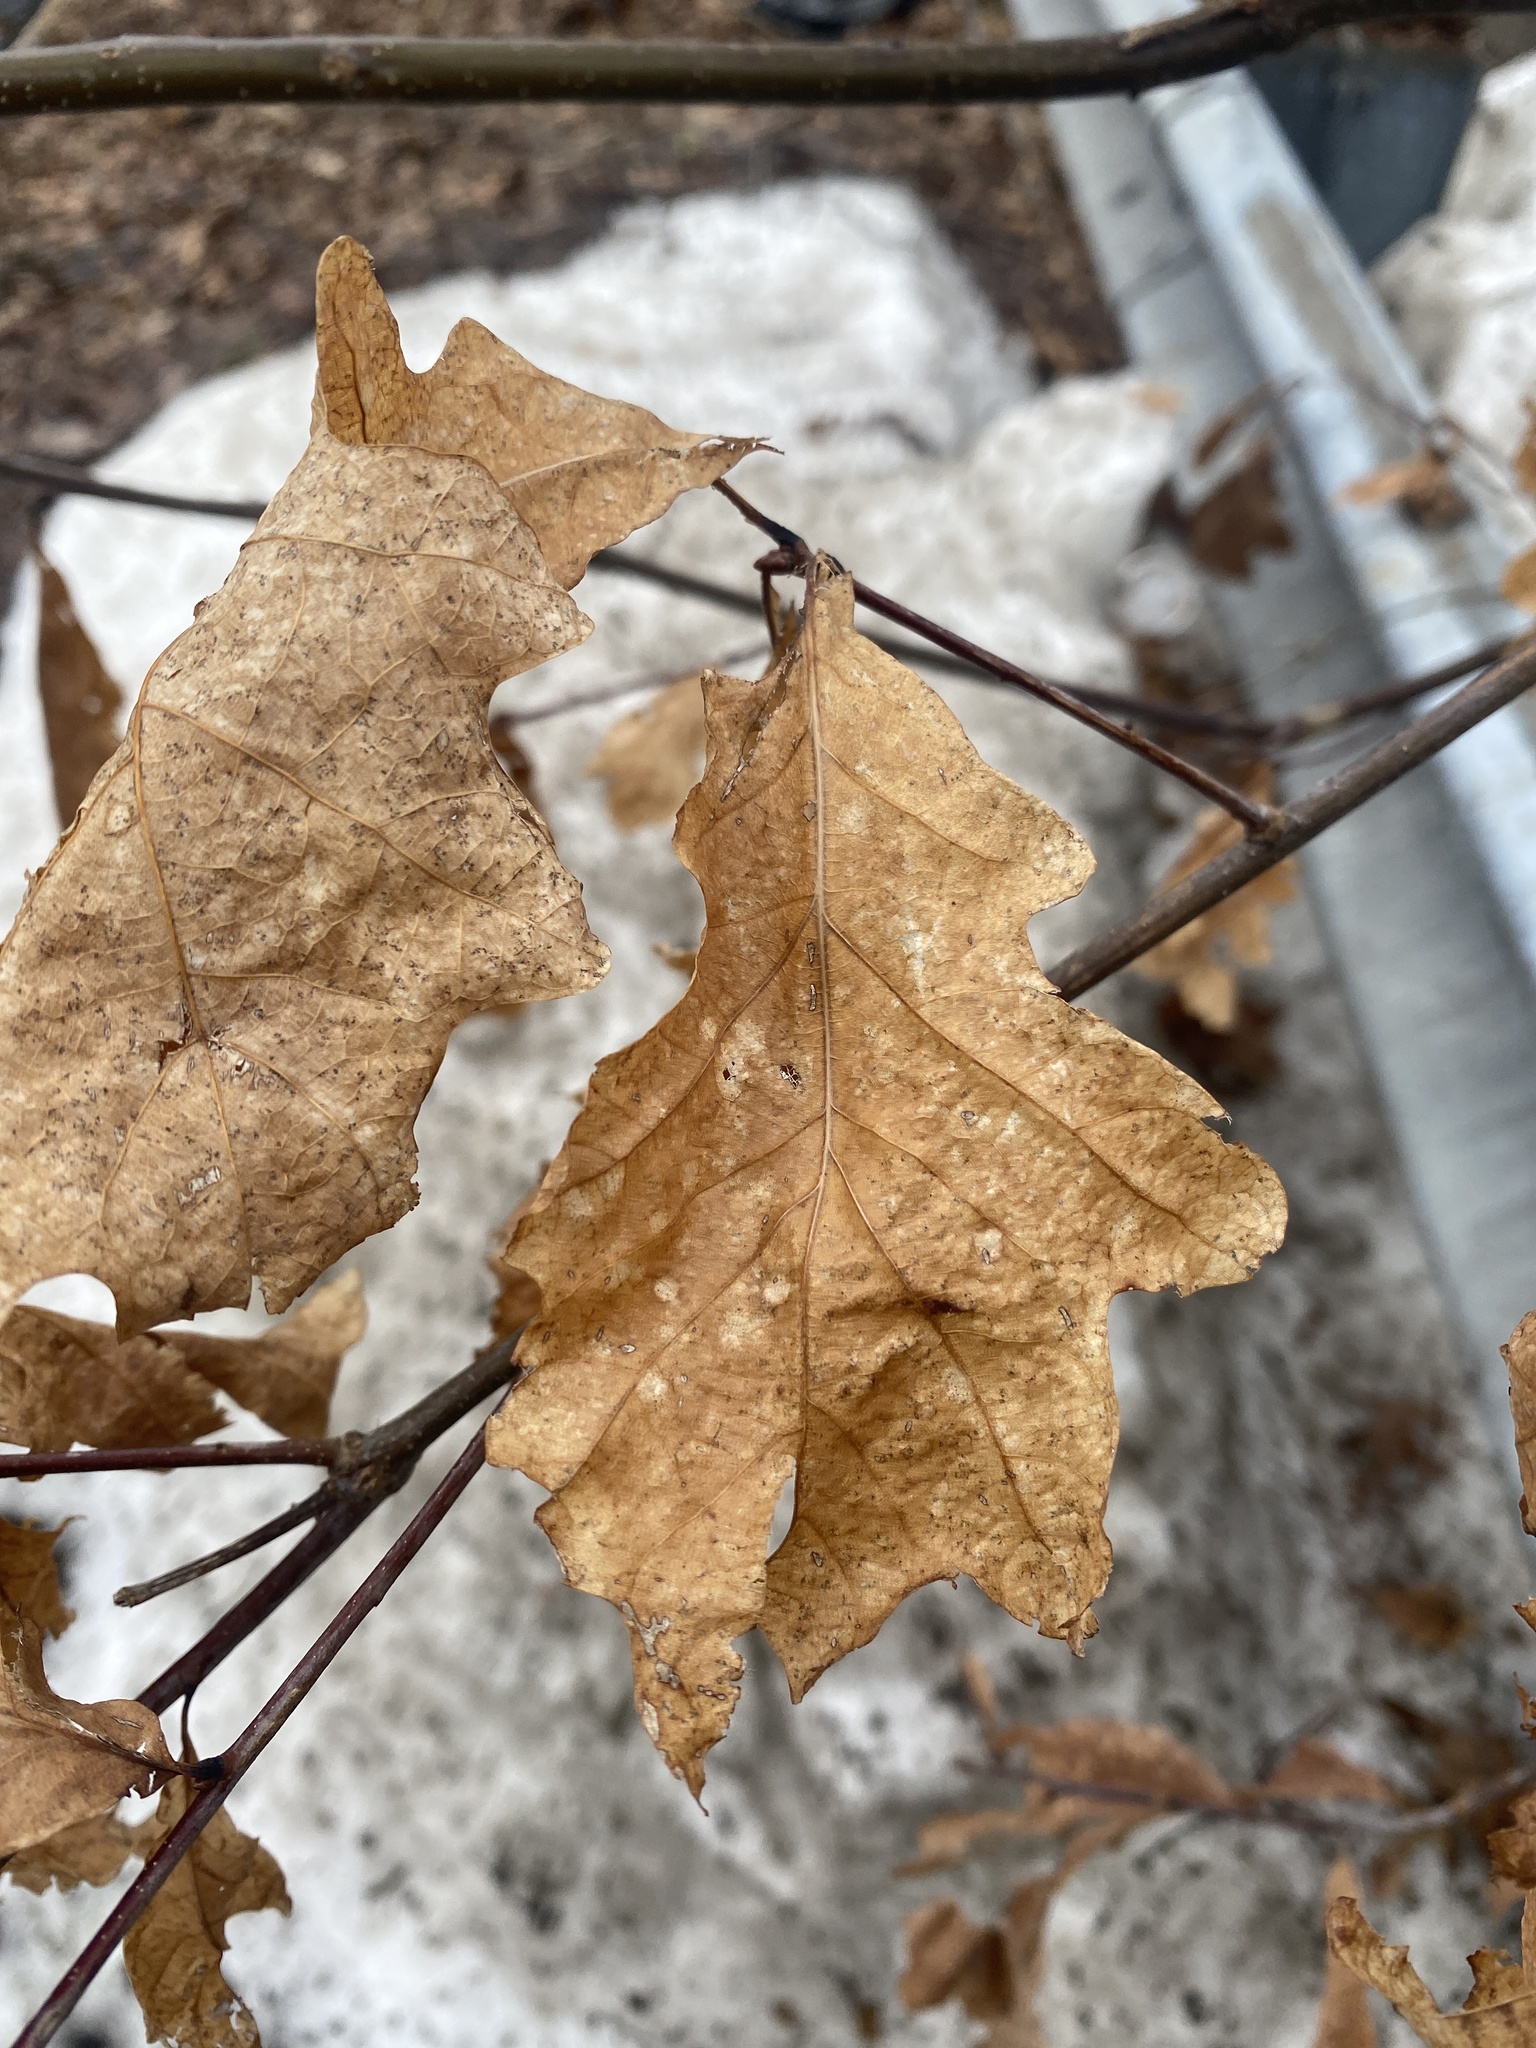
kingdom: Plantae
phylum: Tracheophyta
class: Magnoliopsida
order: Fagales
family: Fagaceae
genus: Quercus
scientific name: Quercus alba
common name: White oak
